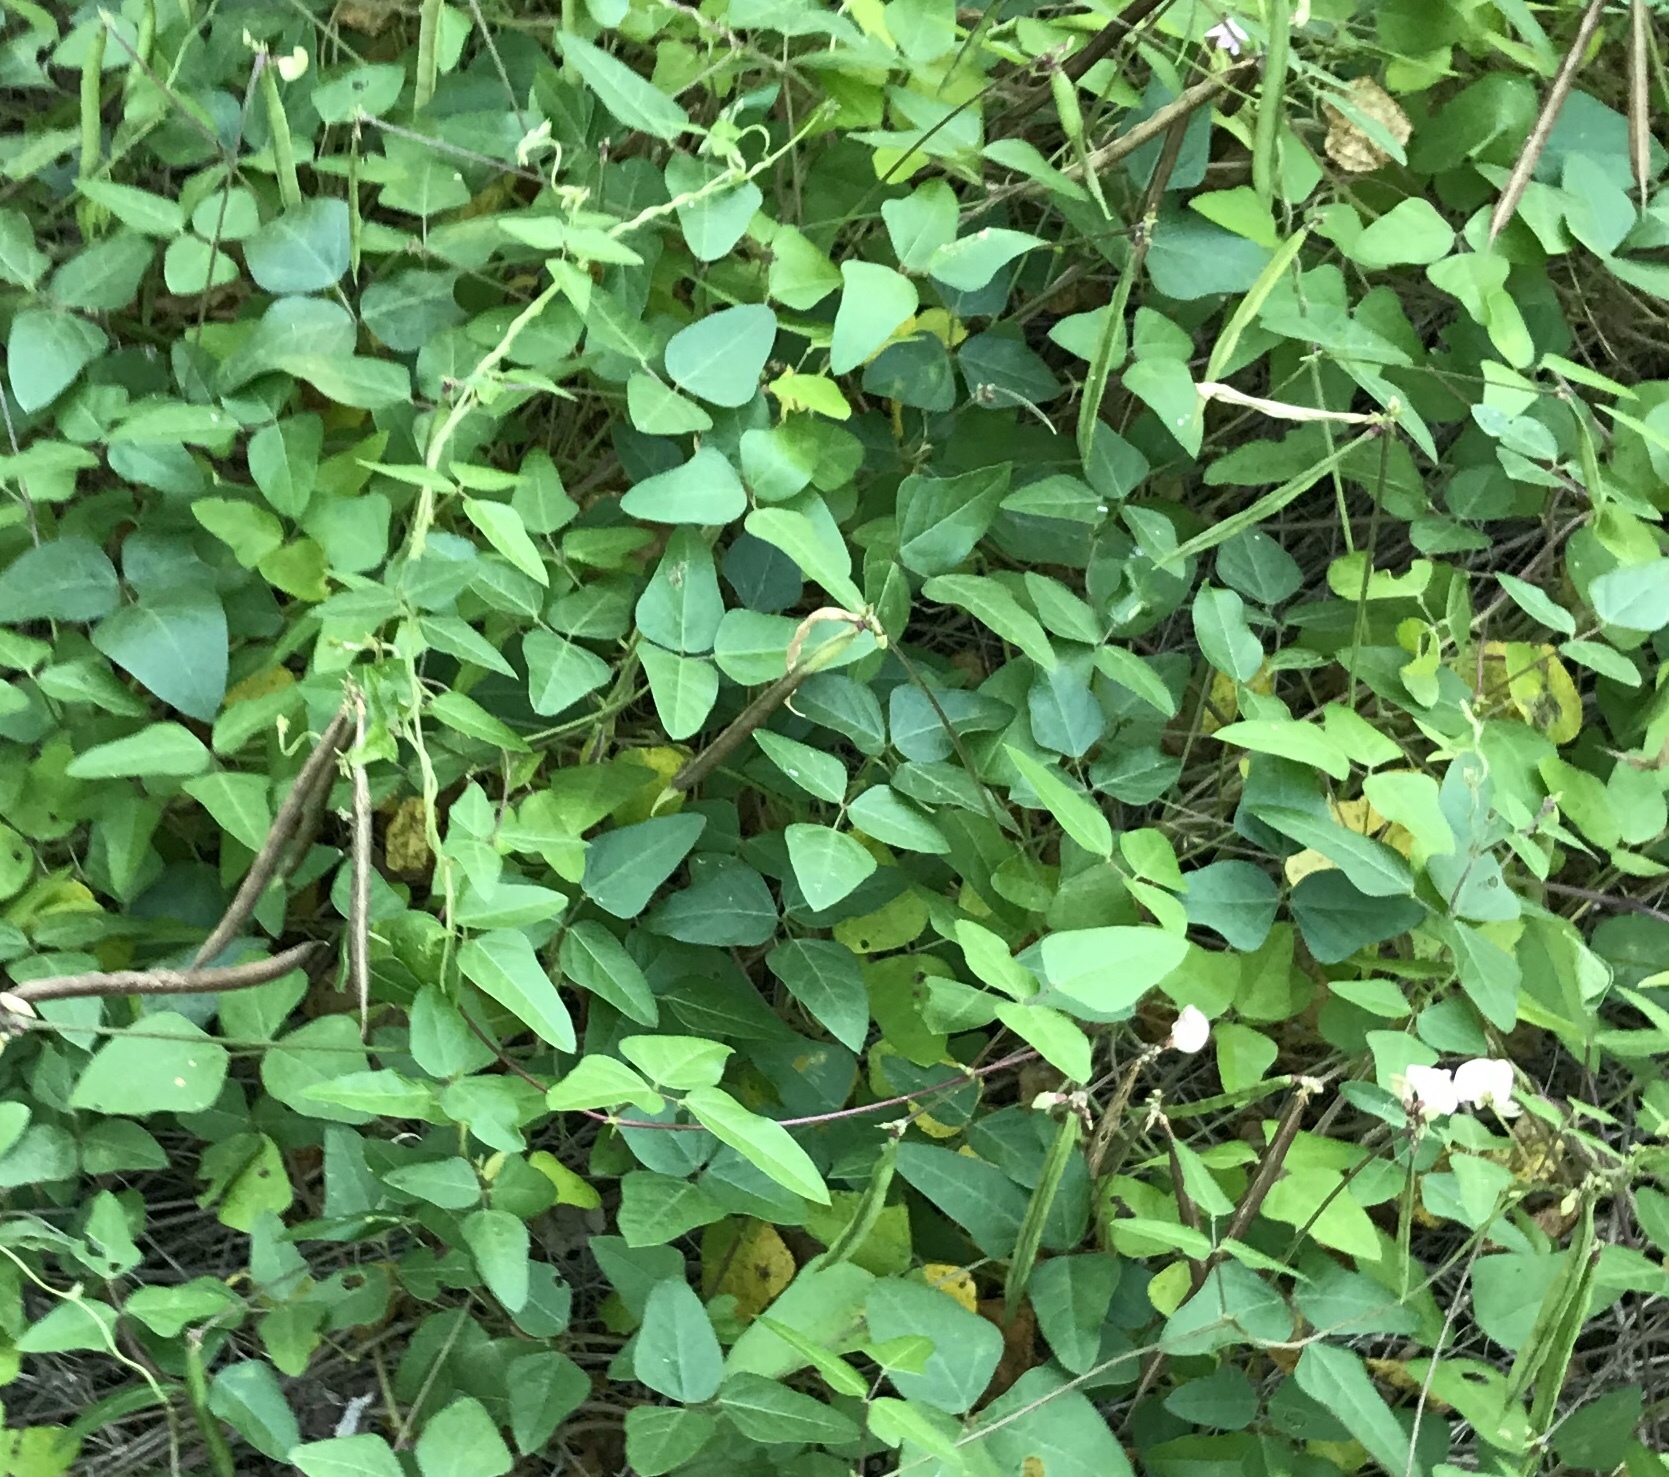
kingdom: Plantae
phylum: Tracheophyta
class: Magnoliopsida
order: Fabales
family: Fabaceae
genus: Strophostyles
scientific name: Strophostyles helvola
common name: Trailing wild bean
